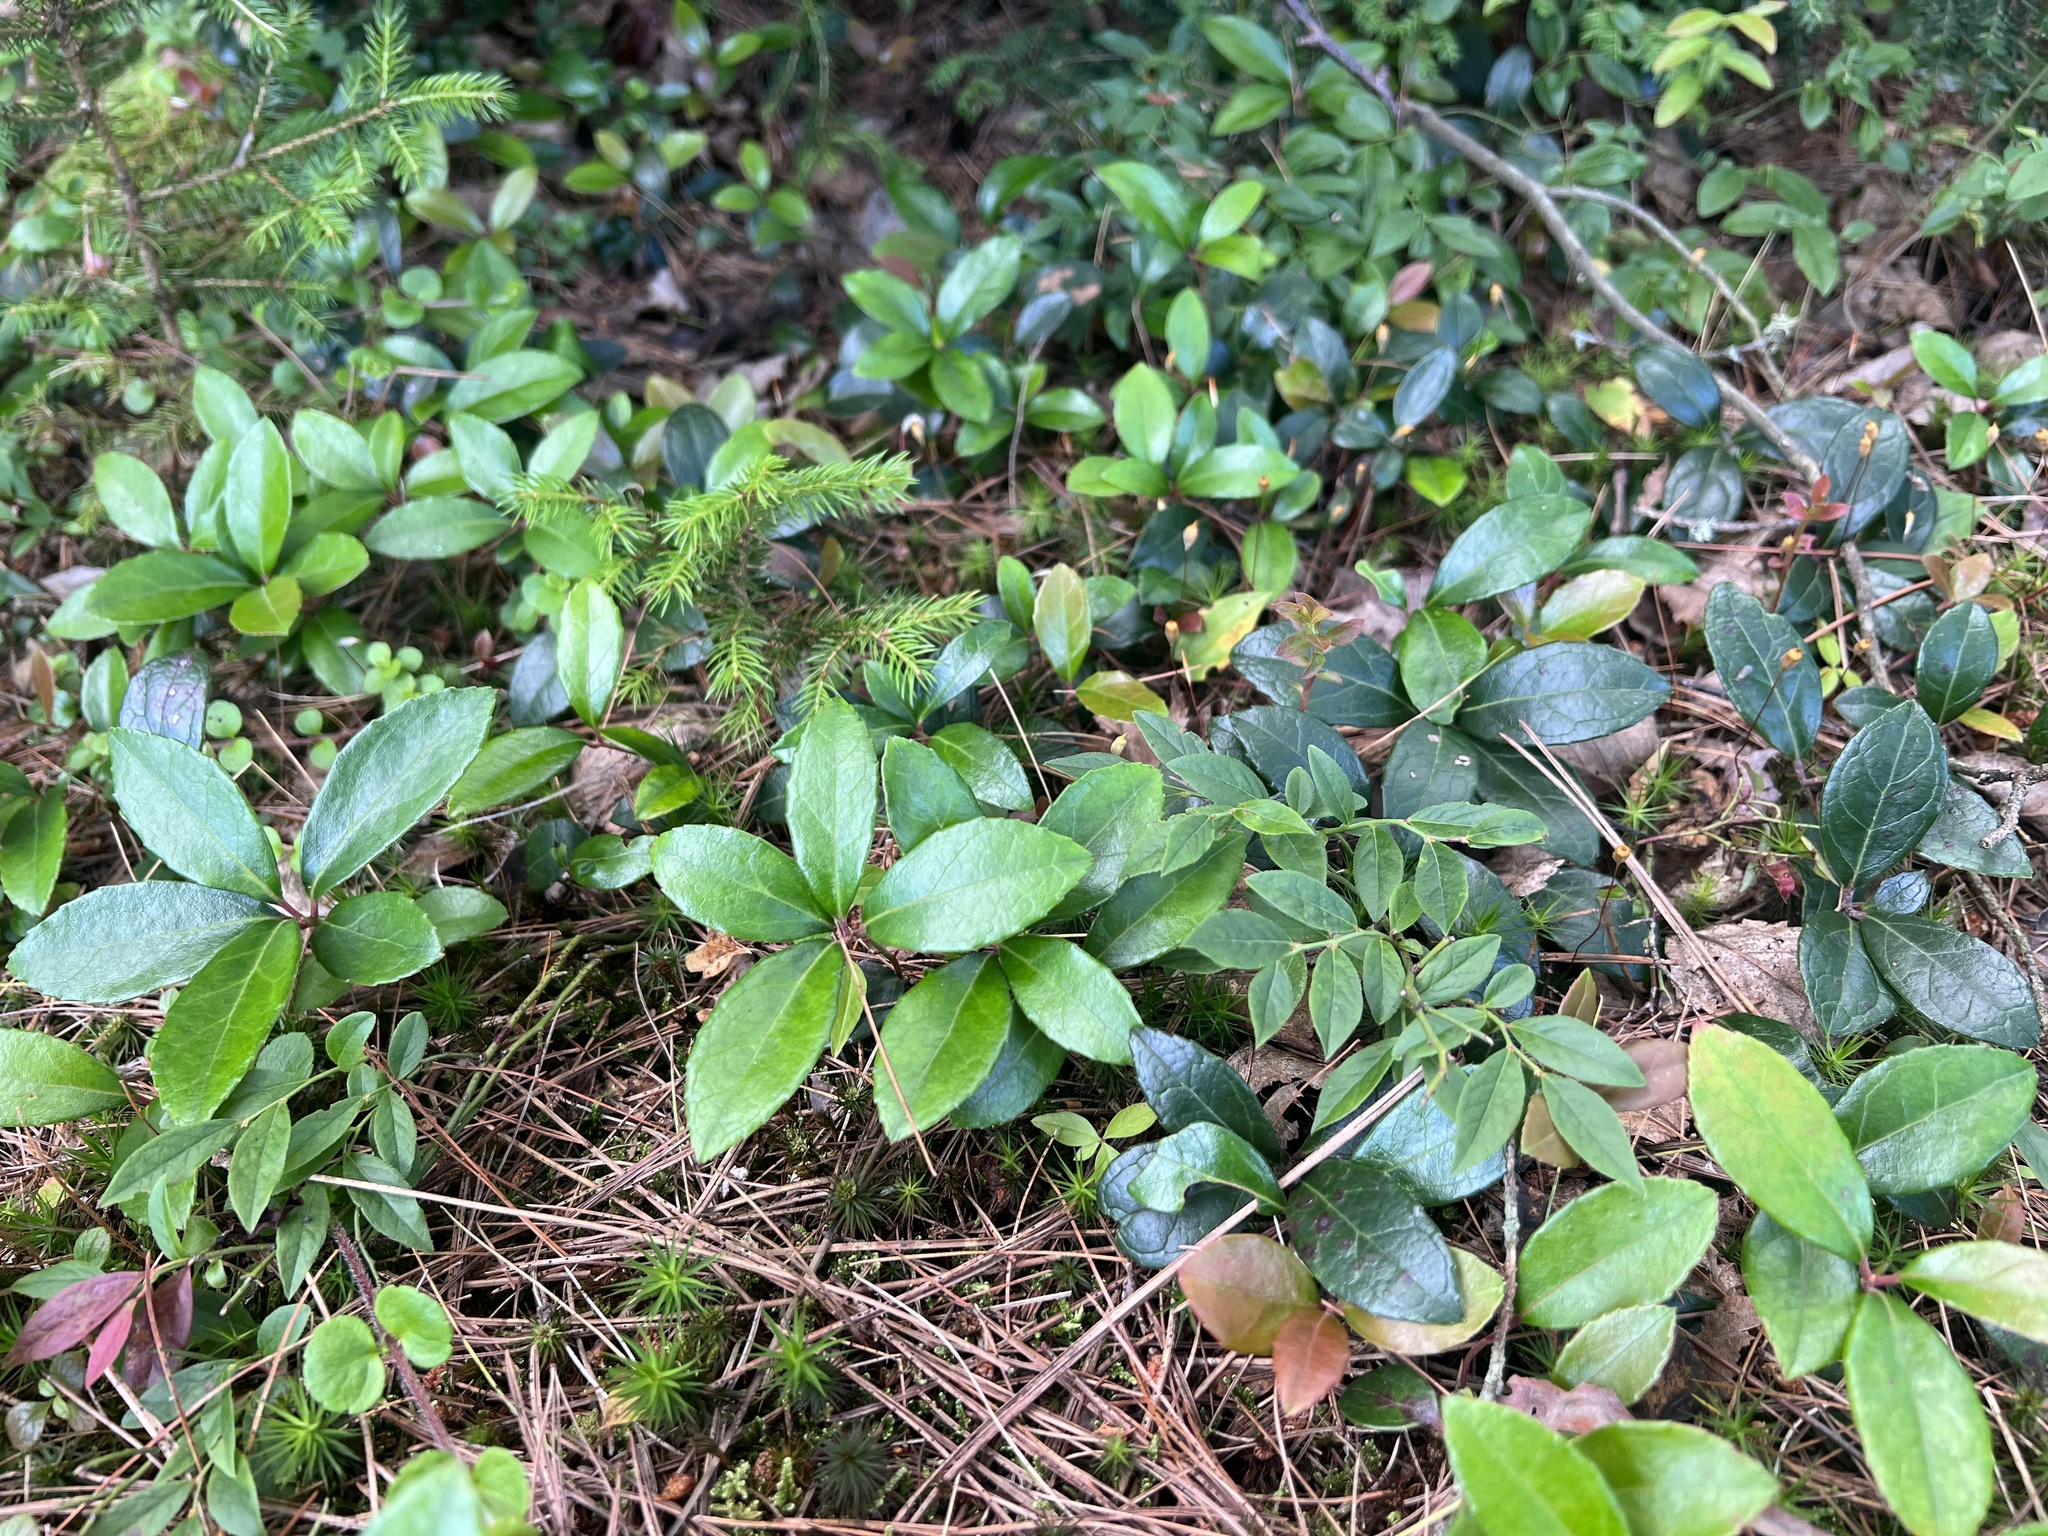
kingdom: Plantae
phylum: Tracheophyta
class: Magnoliopsida
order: Ericales
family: Ericaceae
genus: Gaultheria
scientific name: Gaultheria procumbens
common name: Checkerberry
